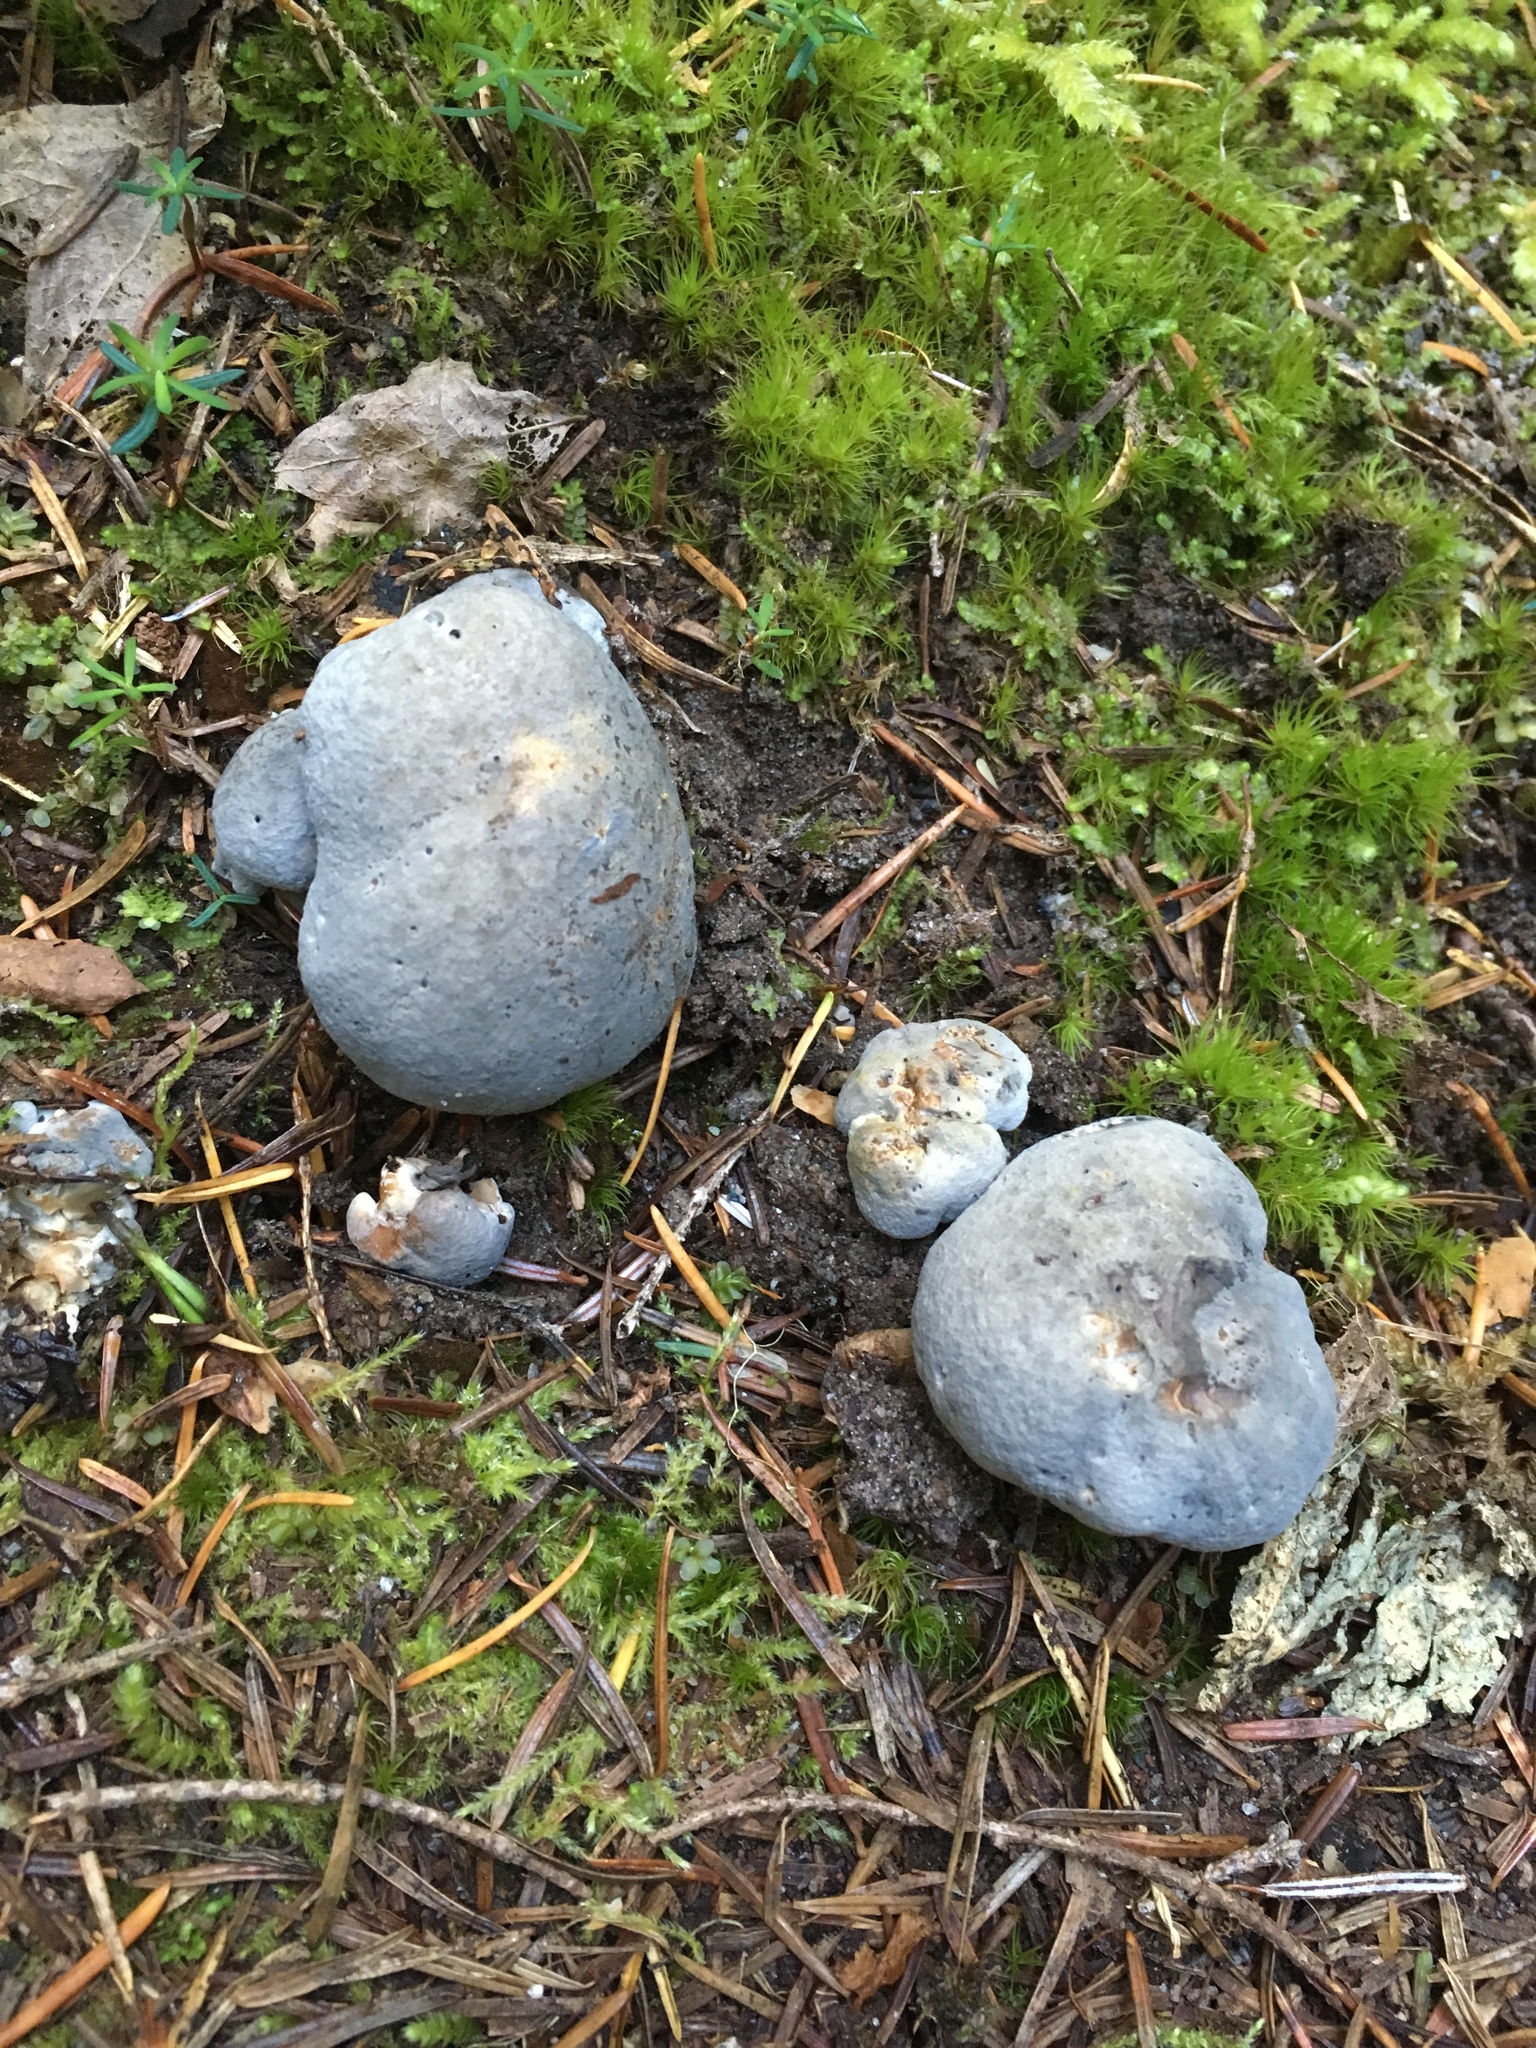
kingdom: Fungi
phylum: Basidiomycota
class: Agaricomycetes
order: Russulales
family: Albatrellaceae
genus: Albatrellopsis
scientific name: Albatrellopsis flettii
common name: Blue polypore
